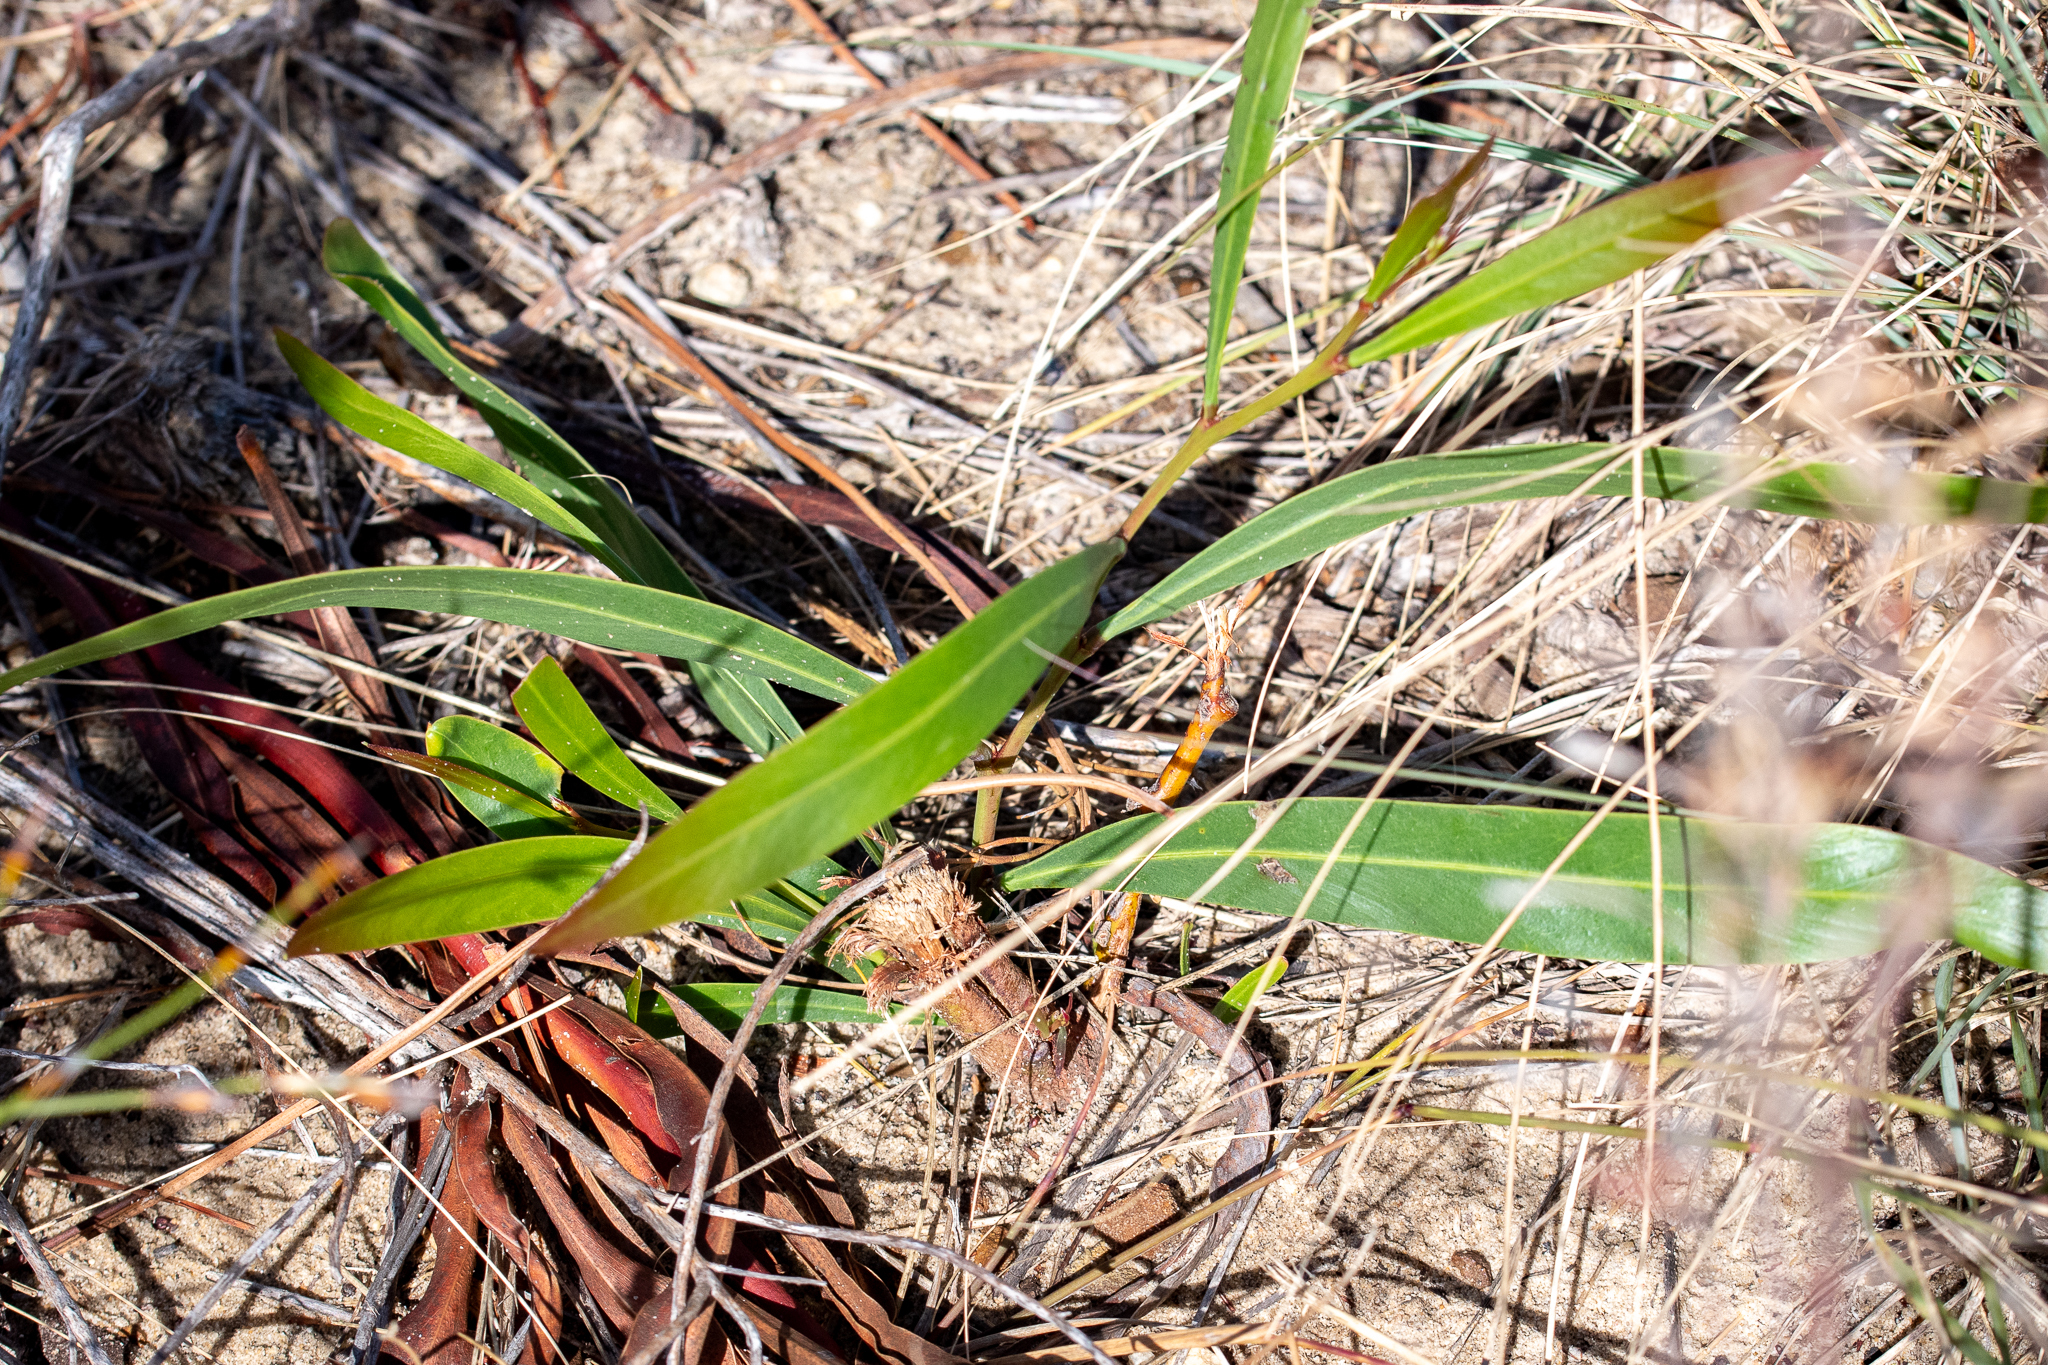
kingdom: Plantae
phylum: Tracheophyta
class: Magnoliopsida
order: Fabales
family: Fabaceae
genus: Acacia
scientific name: Acacia saligna
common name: Orange wattle
